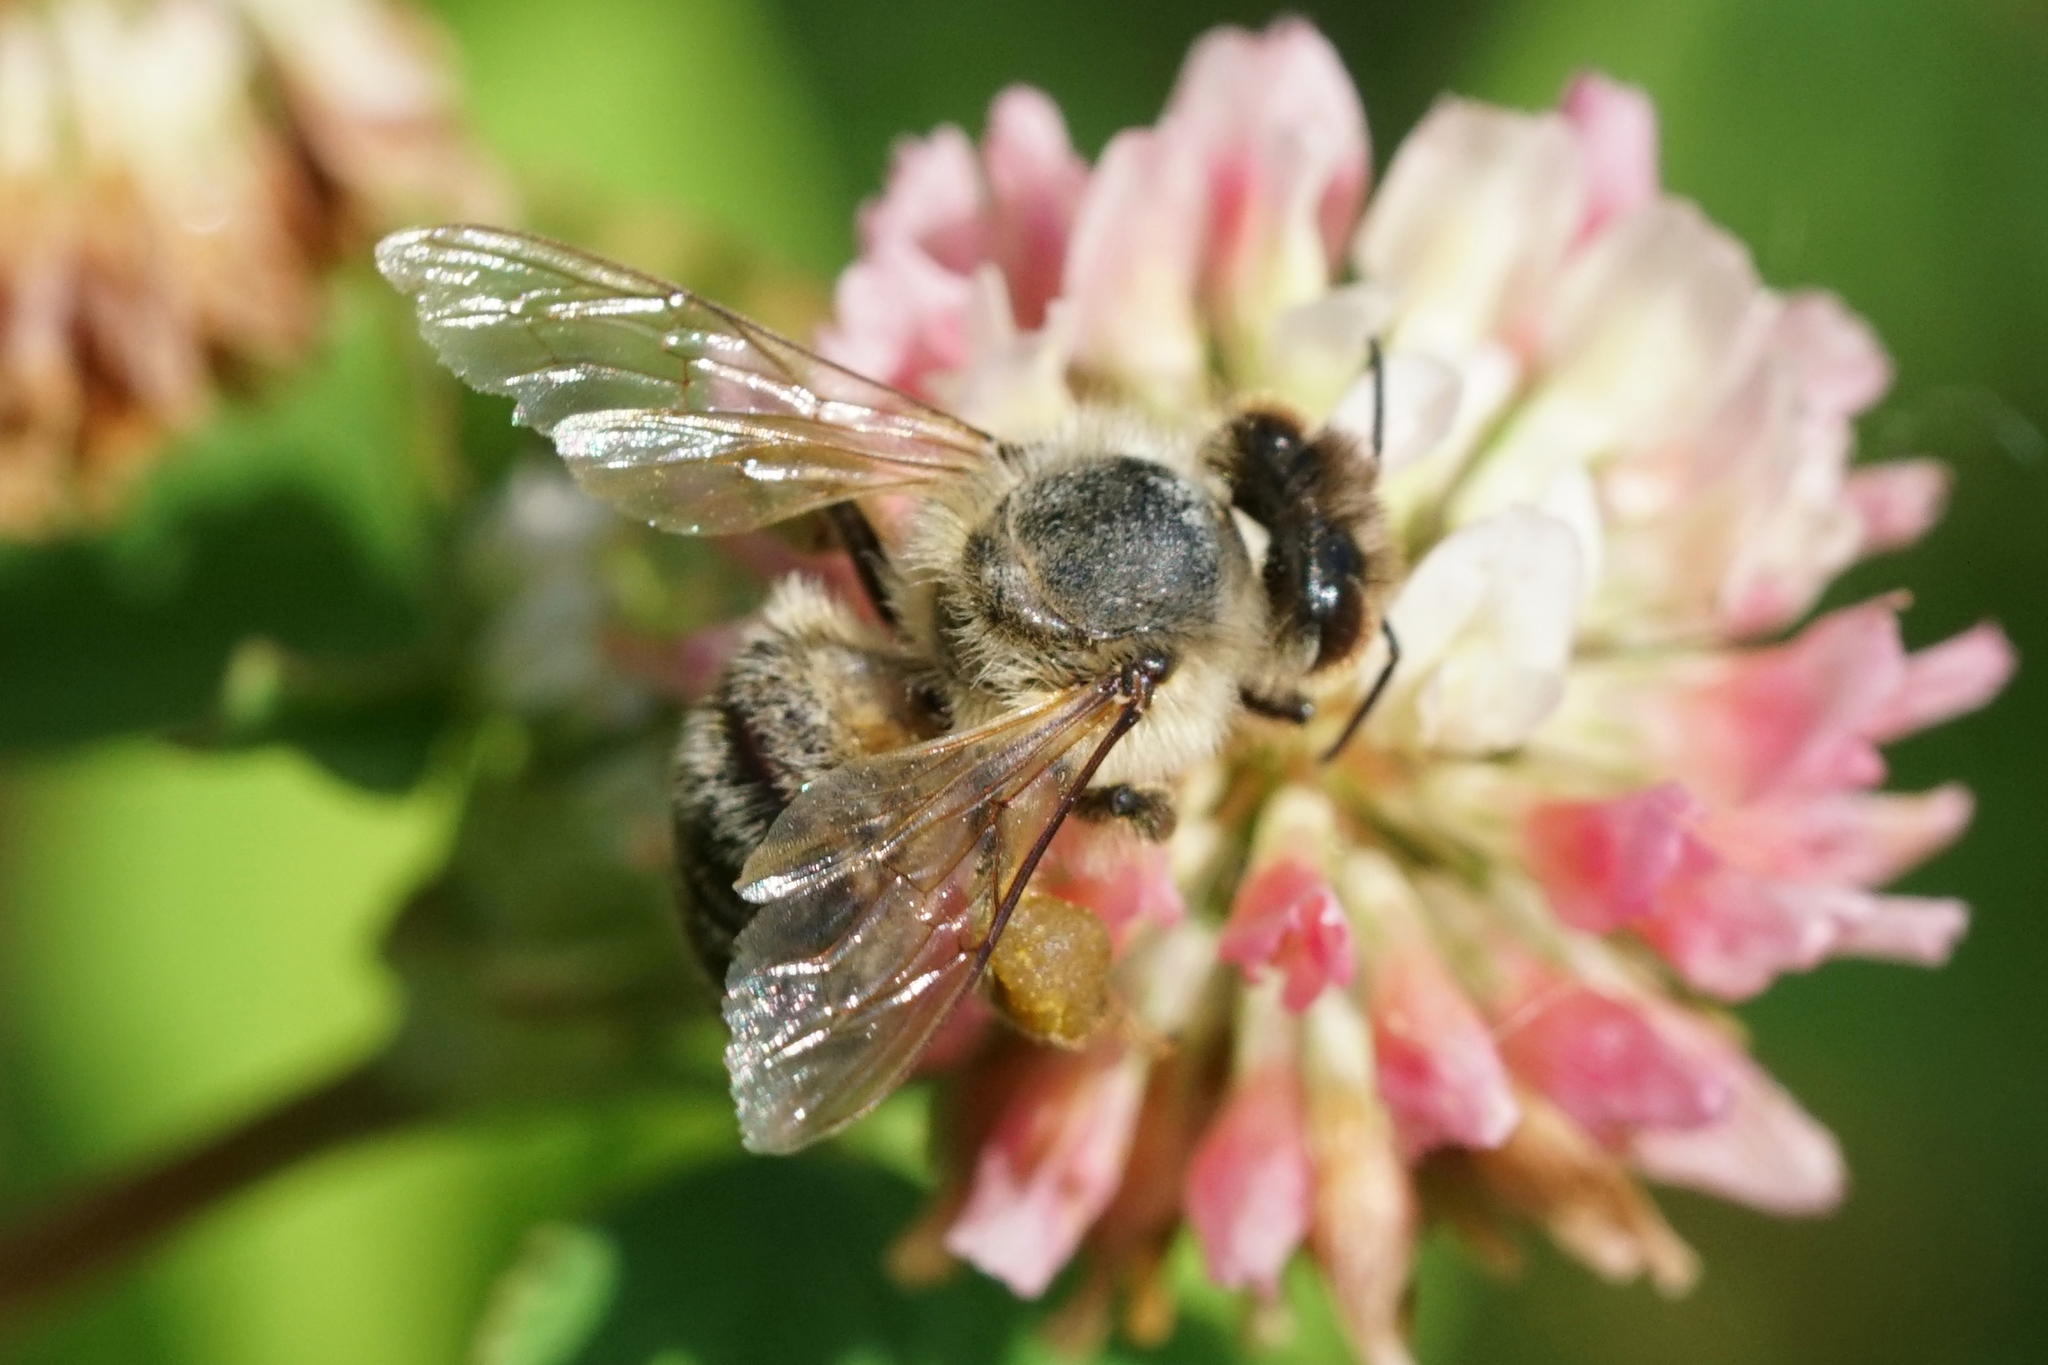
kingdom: Animalia
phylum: Arthropoda
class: Insecta
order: Hymenoptera
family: Apidae
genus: Apis
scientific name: Apis mellifera
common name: Honey bee
